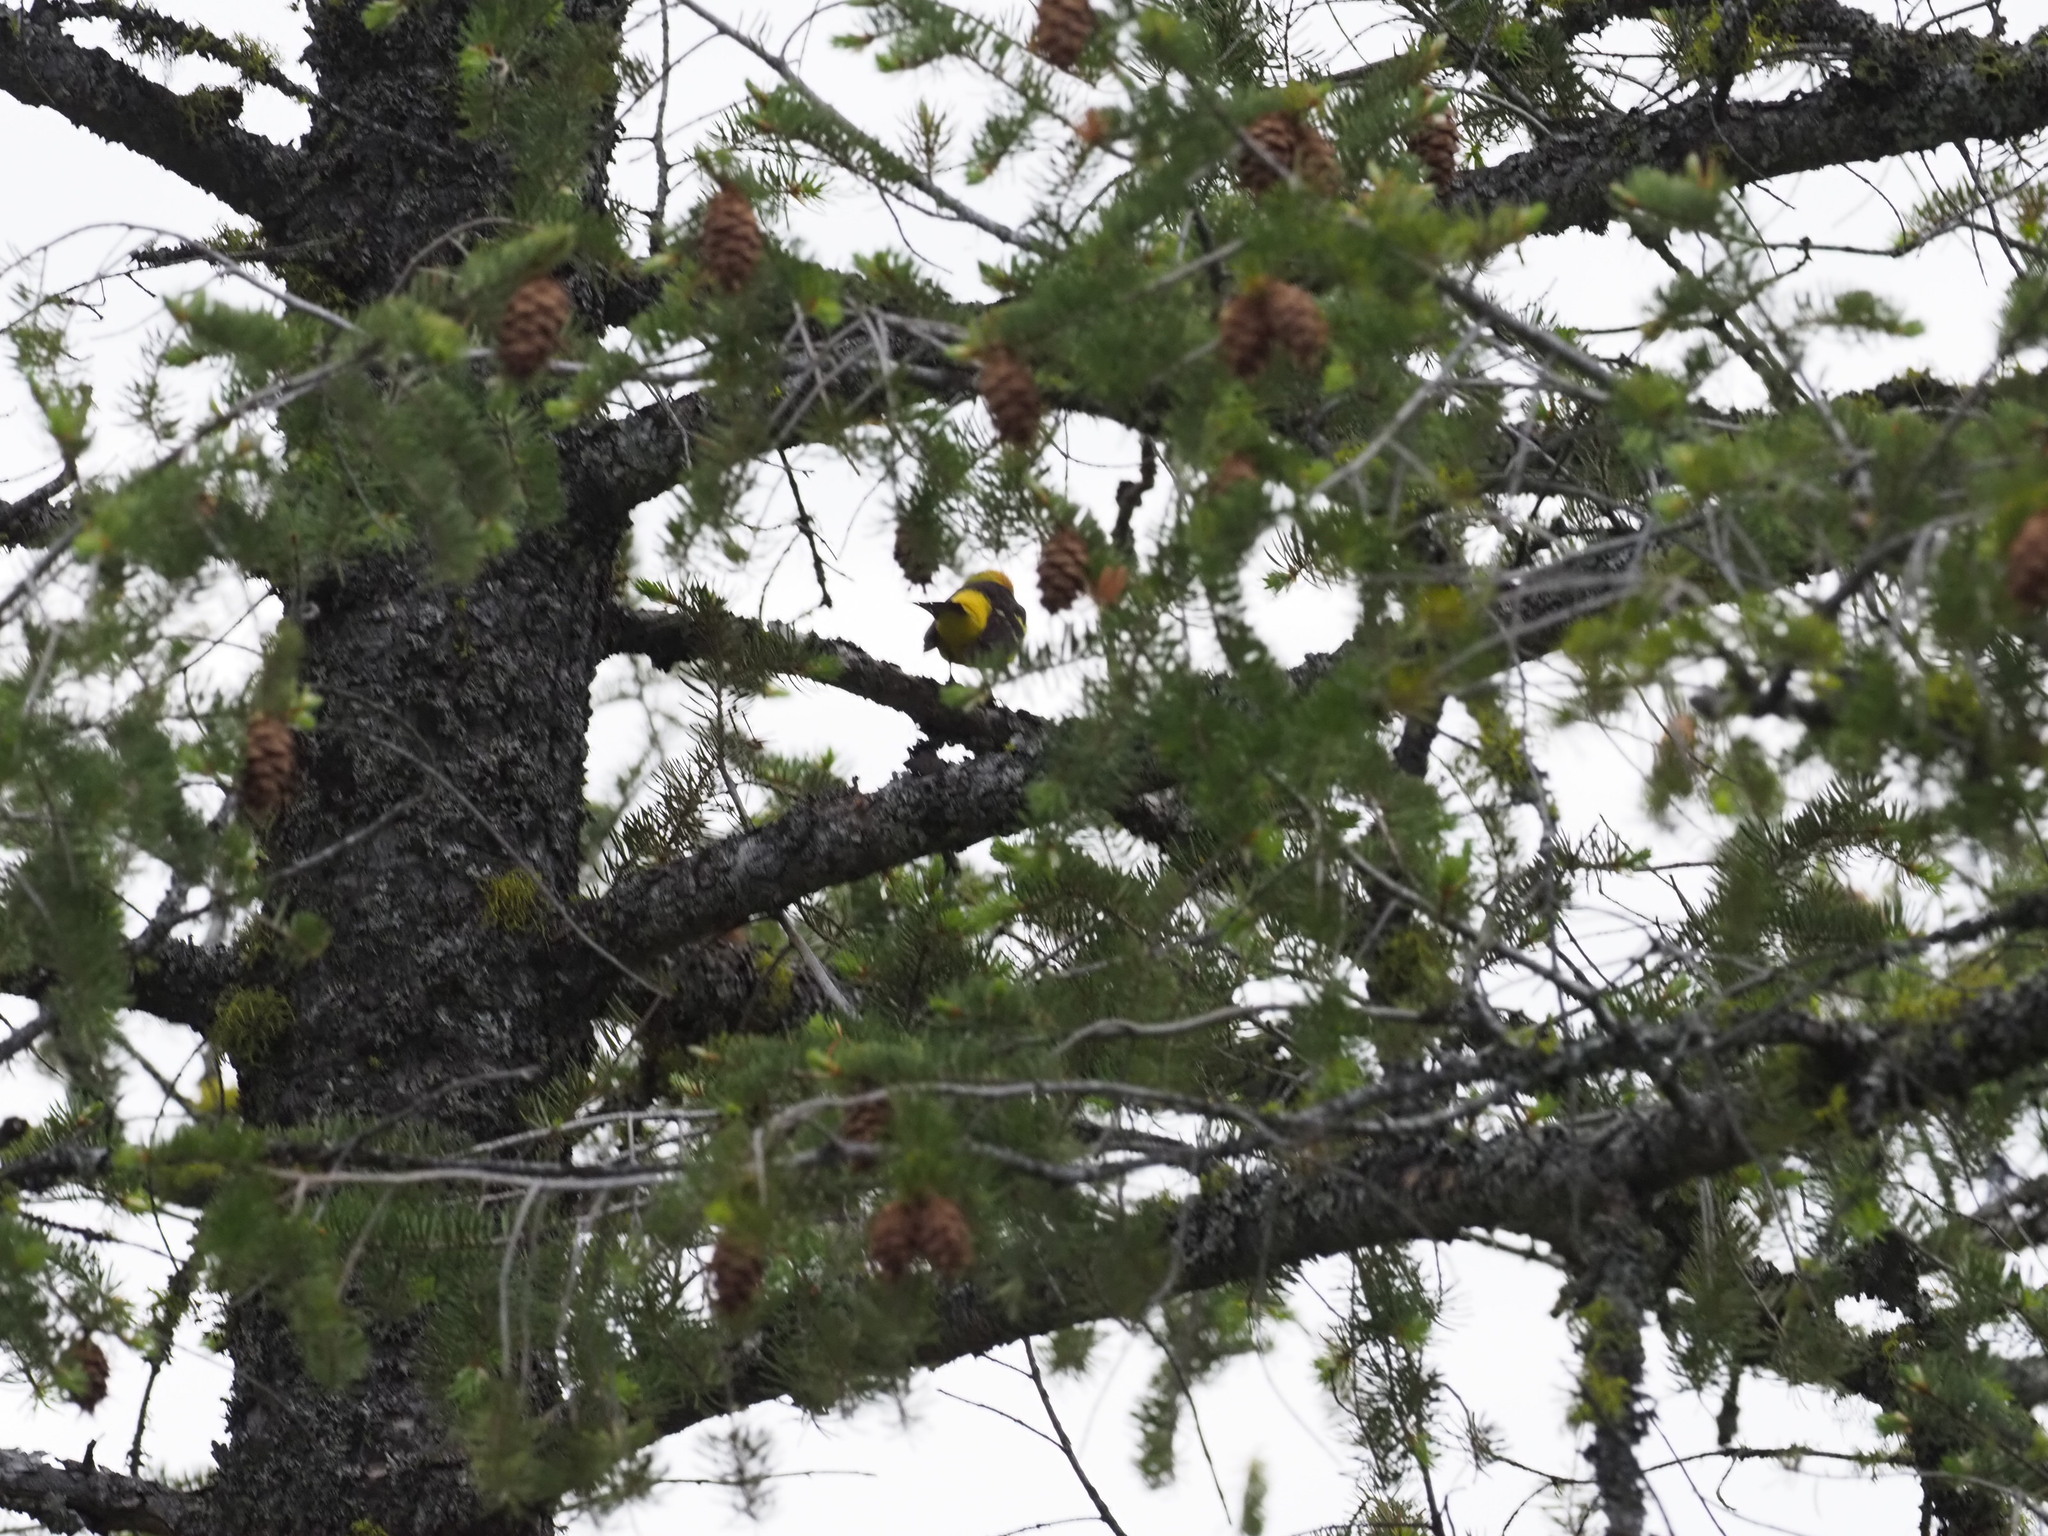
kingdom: Animalia
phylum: Chordata
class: Aves
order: Passeriformes
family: Cardinalidae
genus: Piranga
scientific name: Piranga ludoviciana
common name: Western tanager
